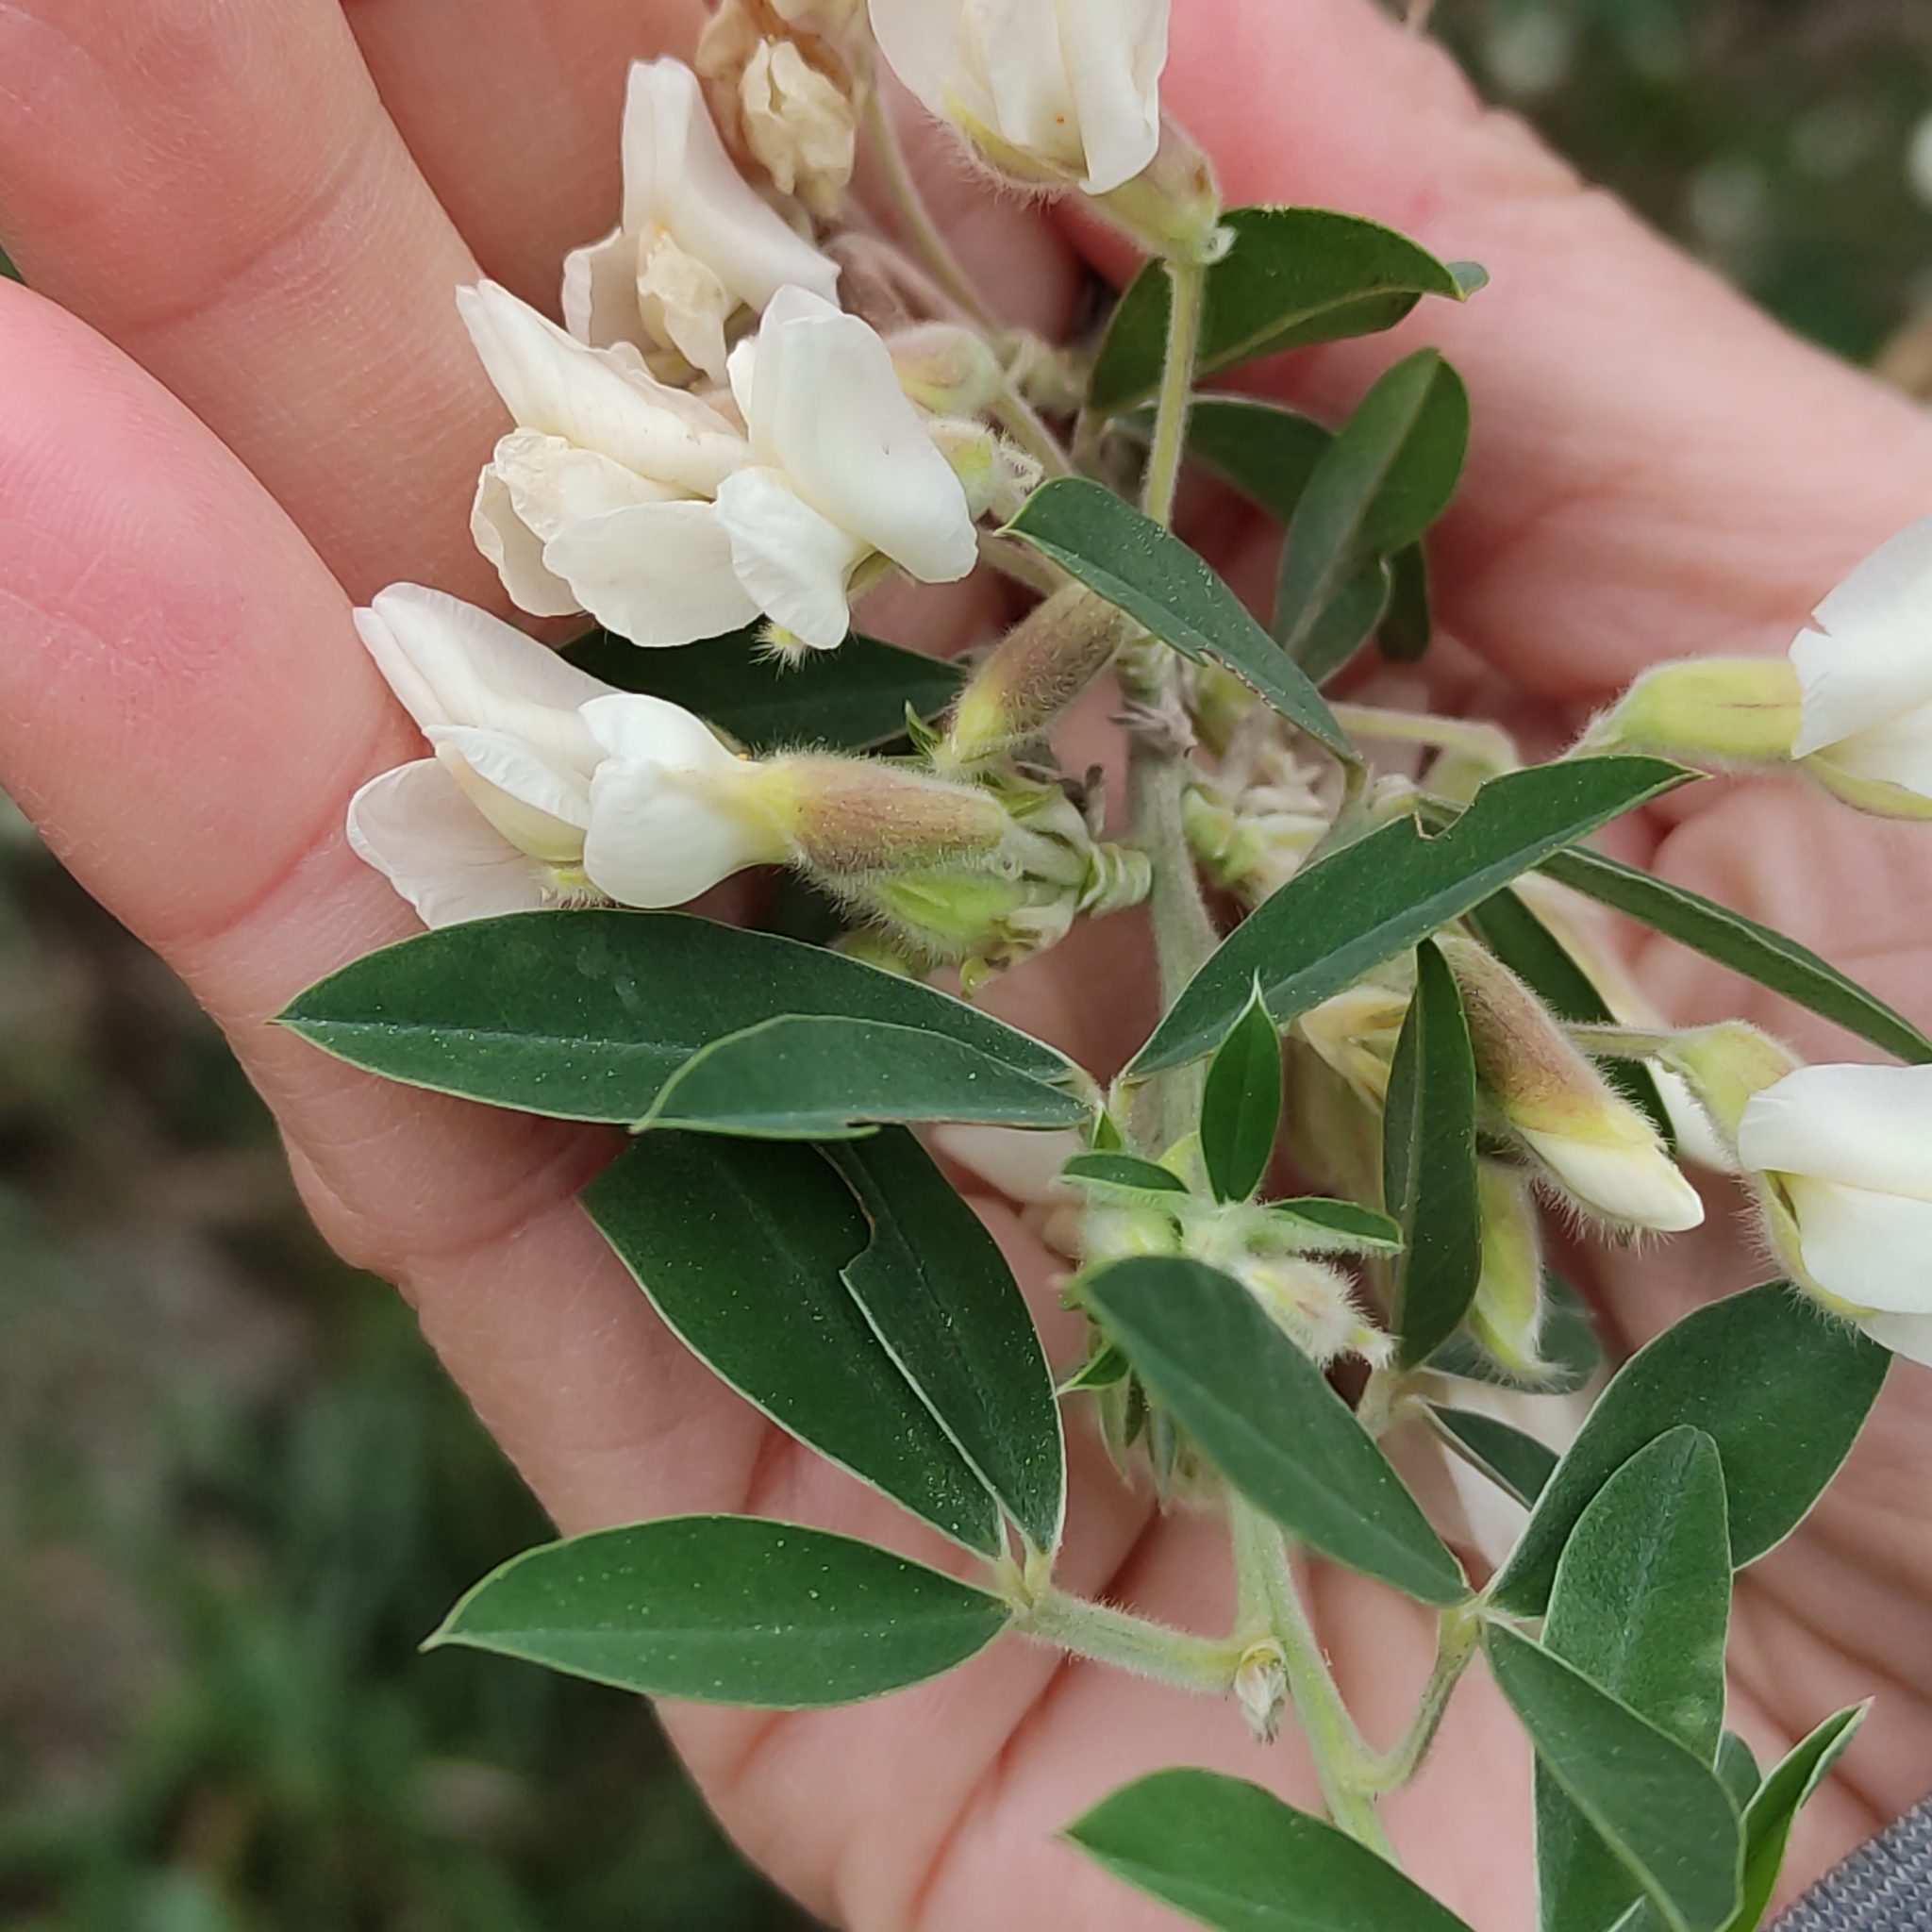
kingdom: Plantae
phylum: Tracheophyta
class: Magnoliopsida
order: Fabales
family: Fabaceae
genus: Chamaecytisus
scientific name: Chamaecytisus prolifer
